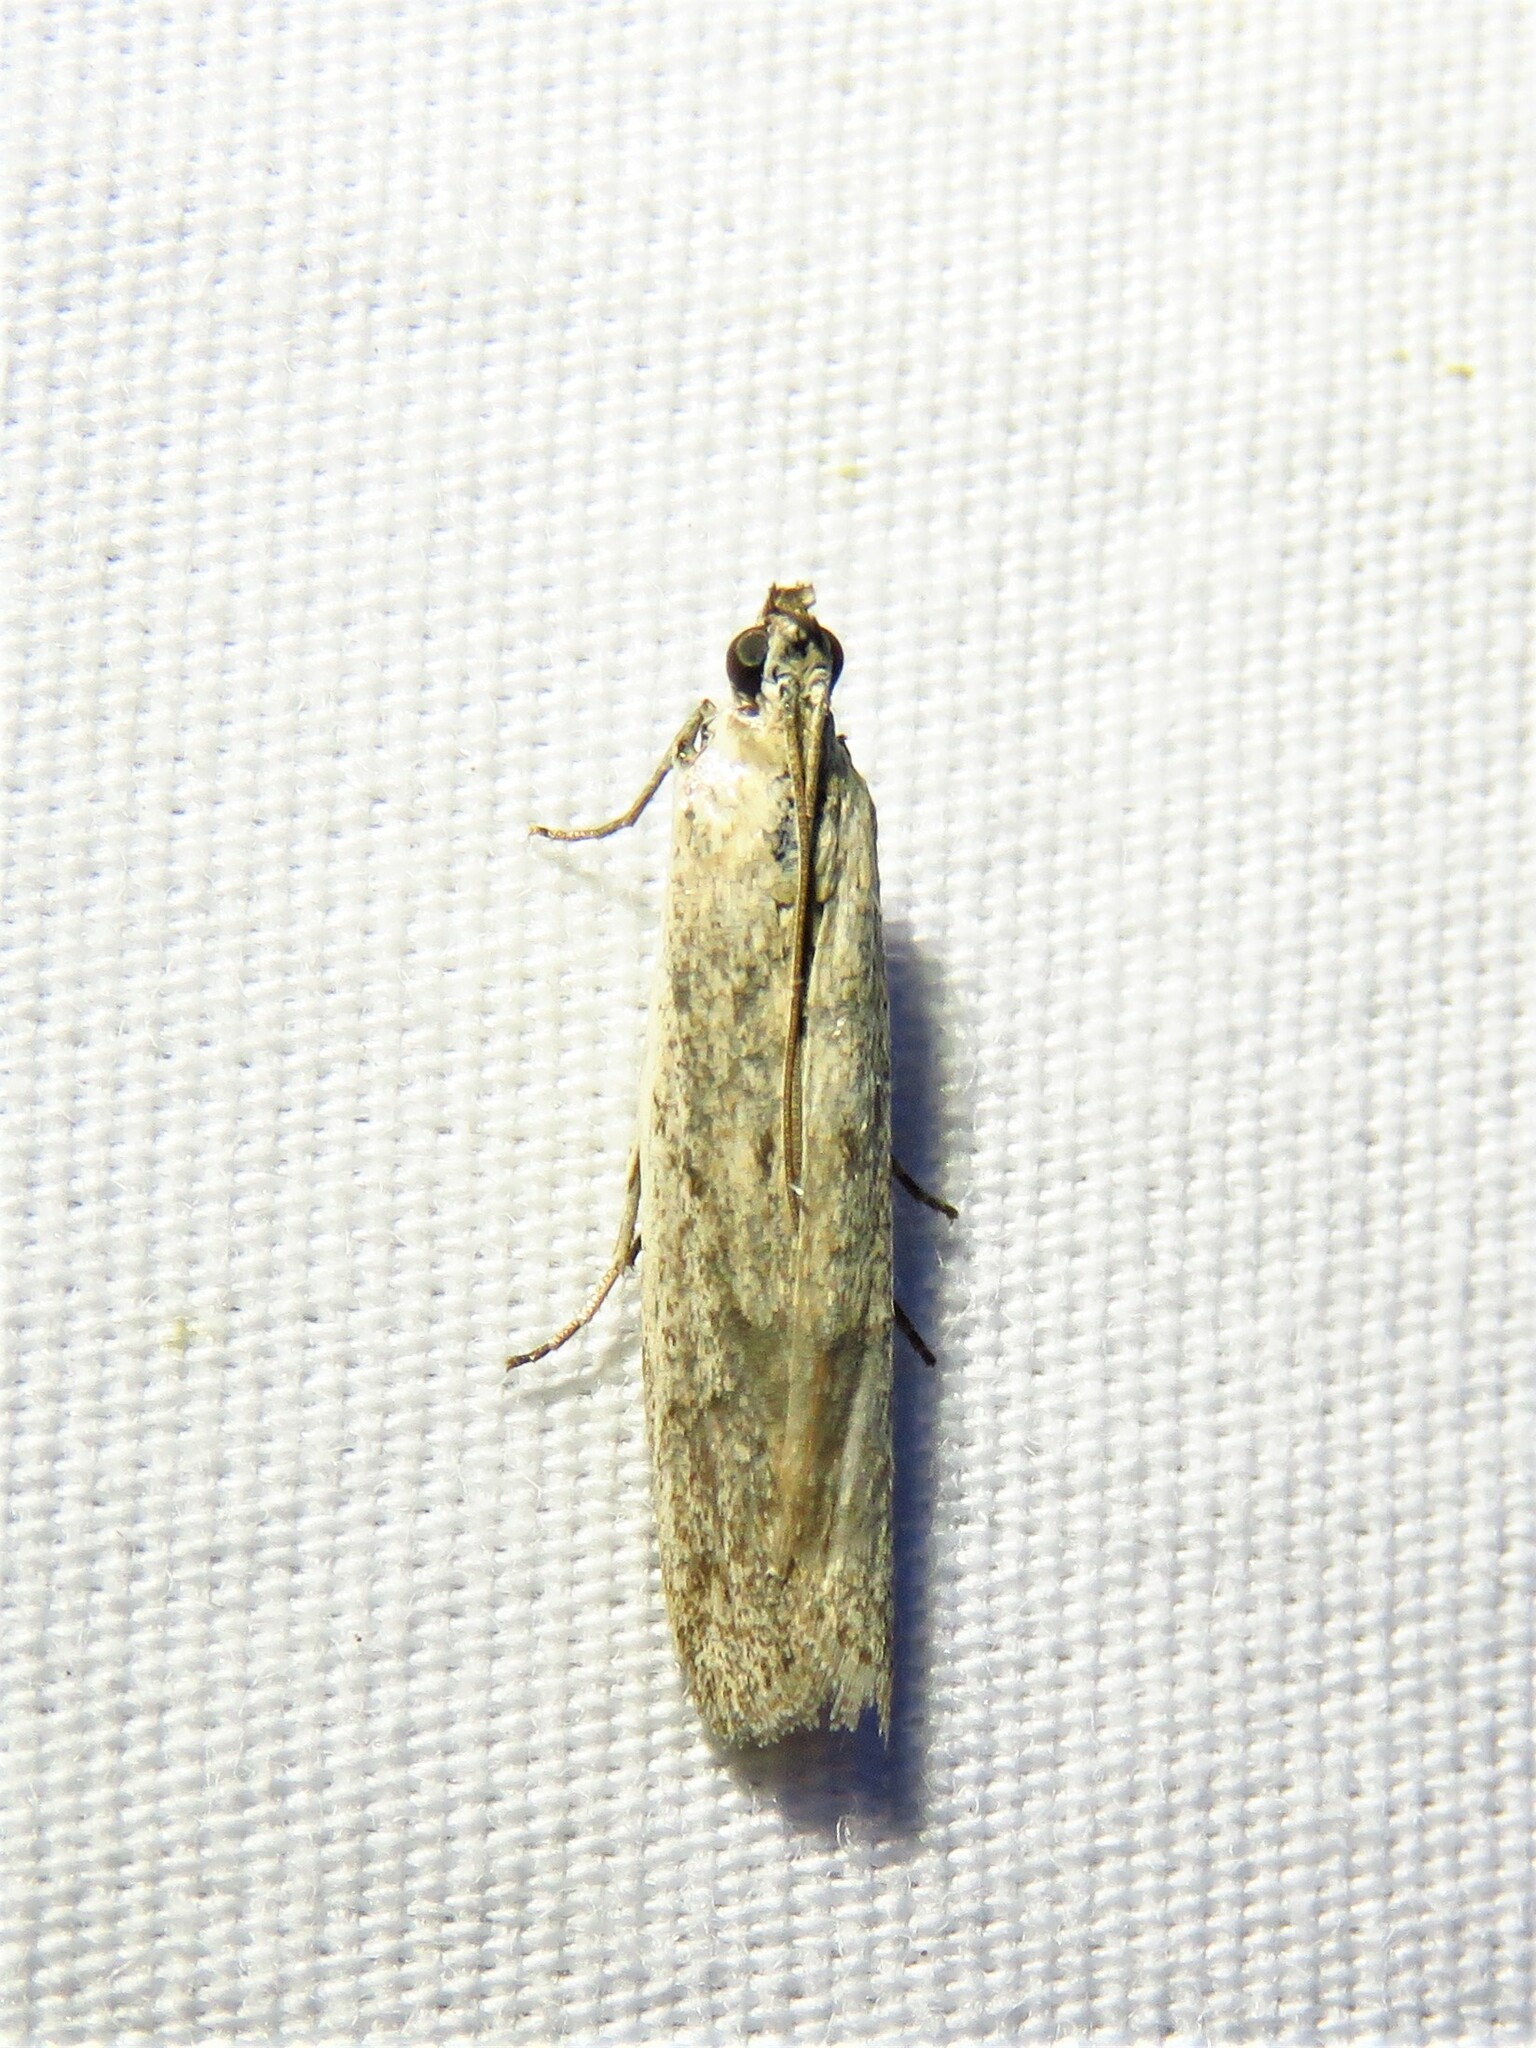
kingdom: Animalia
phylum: Arthropoda
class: Insecta
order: Lepidoptera
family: Pyralidae
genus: Homoeosoma
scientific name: Homoeosoma electella
